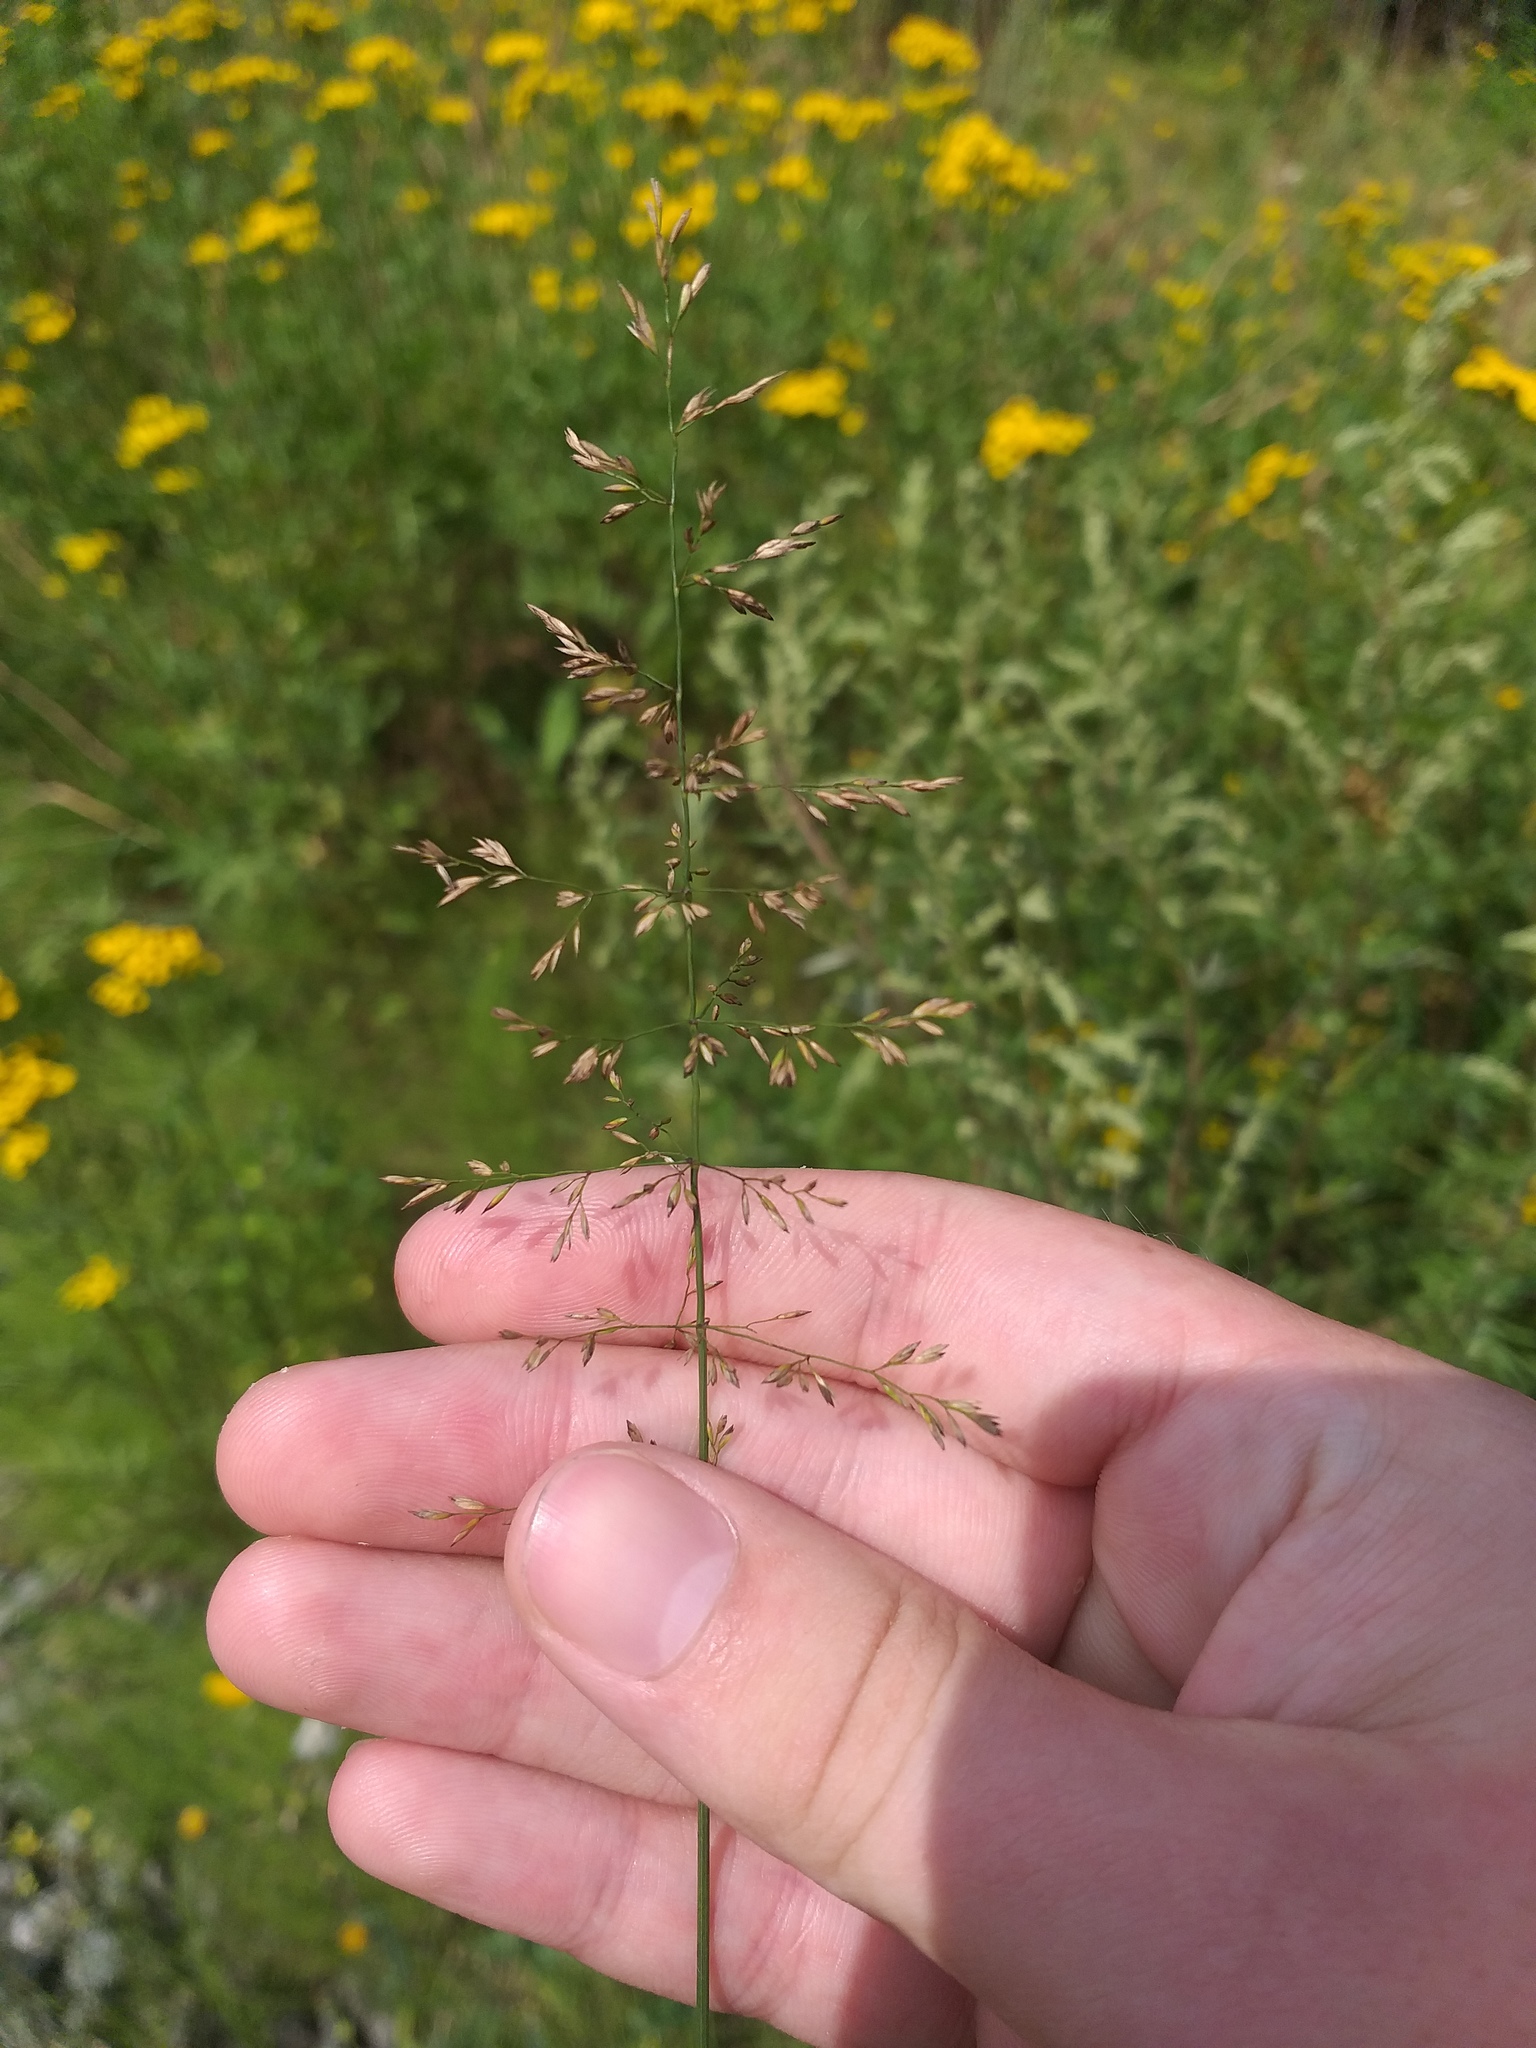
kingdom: Plantae
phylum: Tracheophyta
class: Liliopsida
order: Poales
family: Poaceae
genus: Poa
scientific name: Poa compressa
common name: Canada bluegrass
